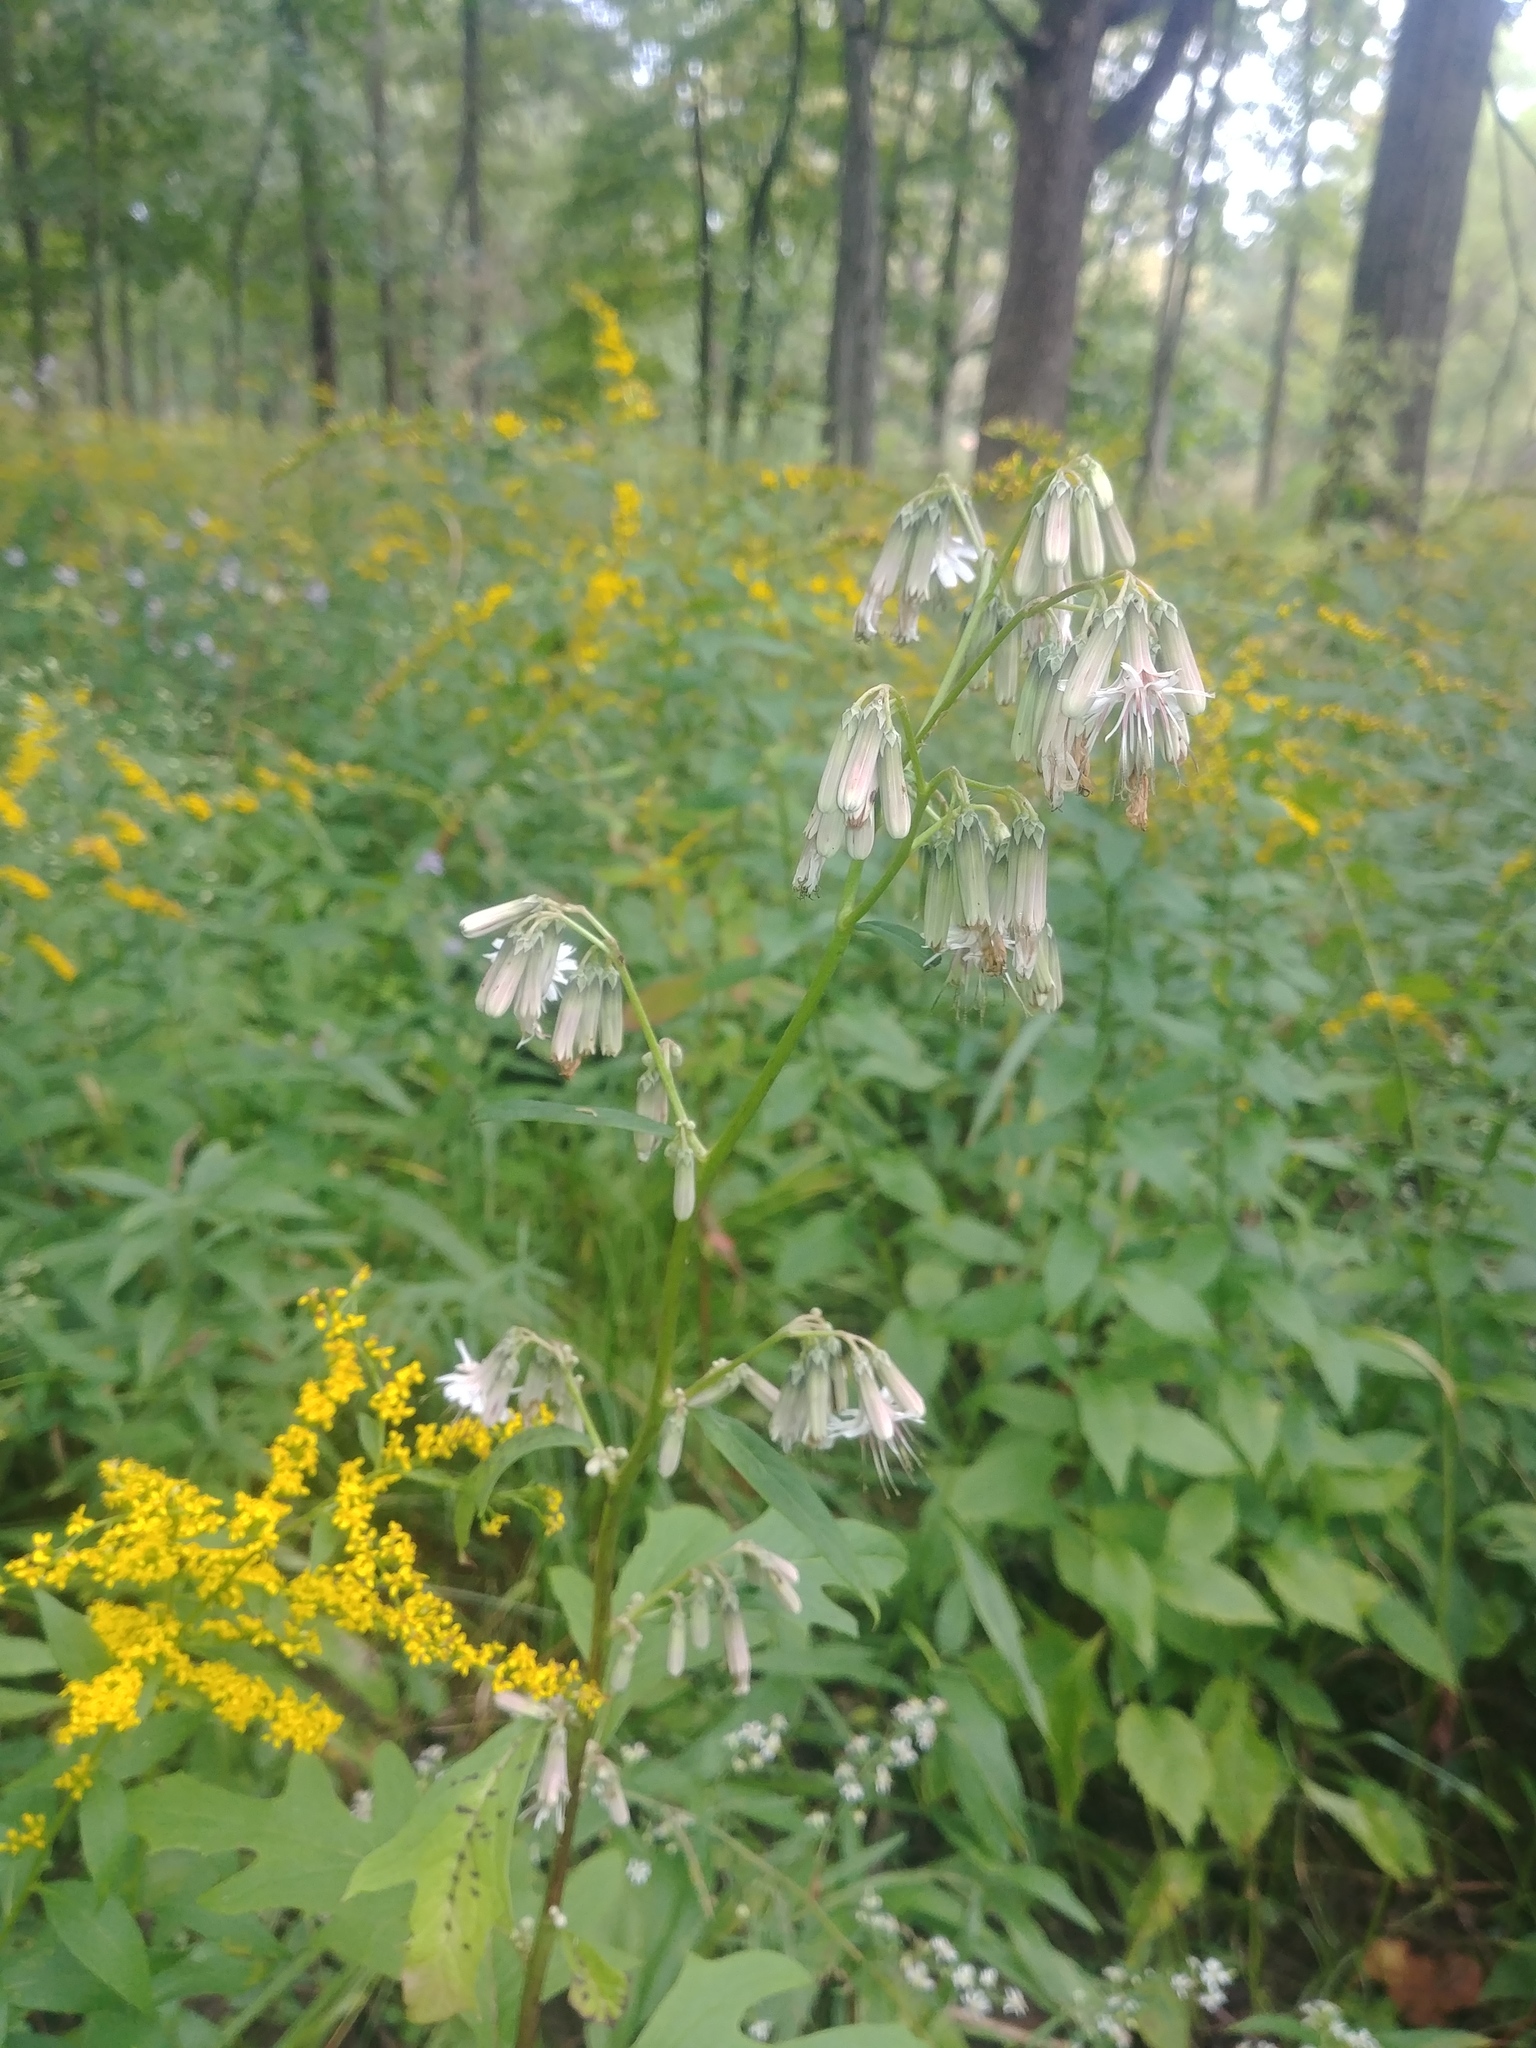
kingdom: Plantae
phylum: Tracheophyta
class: Magnoliopsida
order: Asterales
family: Asteraceae
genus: Nabalus
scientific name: Nabalus albus
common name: White rattlesnakeroot
